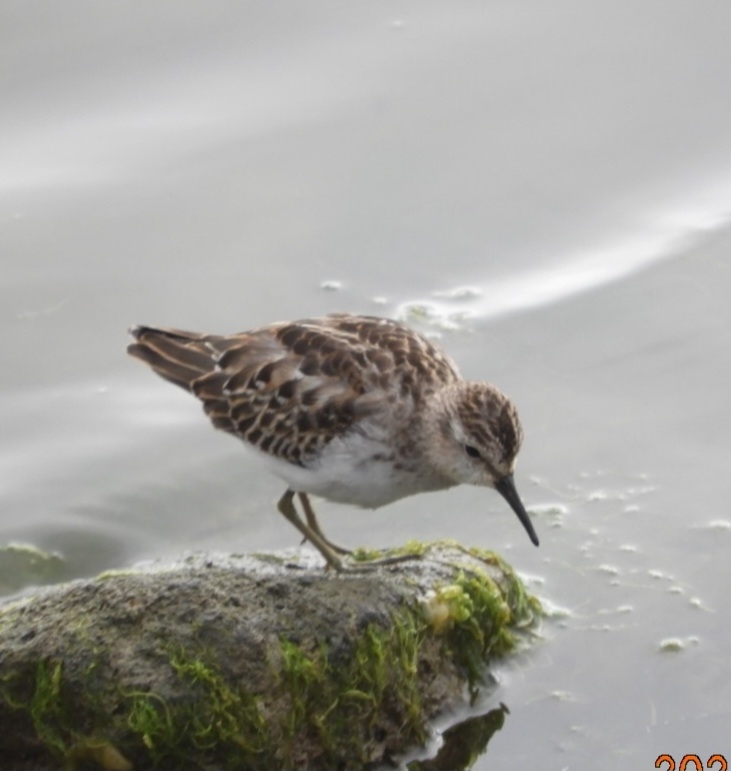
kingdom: Animalia
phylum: Chordata
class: Aves
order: Charadriiformes
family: Scolopacidae
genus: Calidris
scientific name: Calidris minutilla
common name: Least sandpiper
